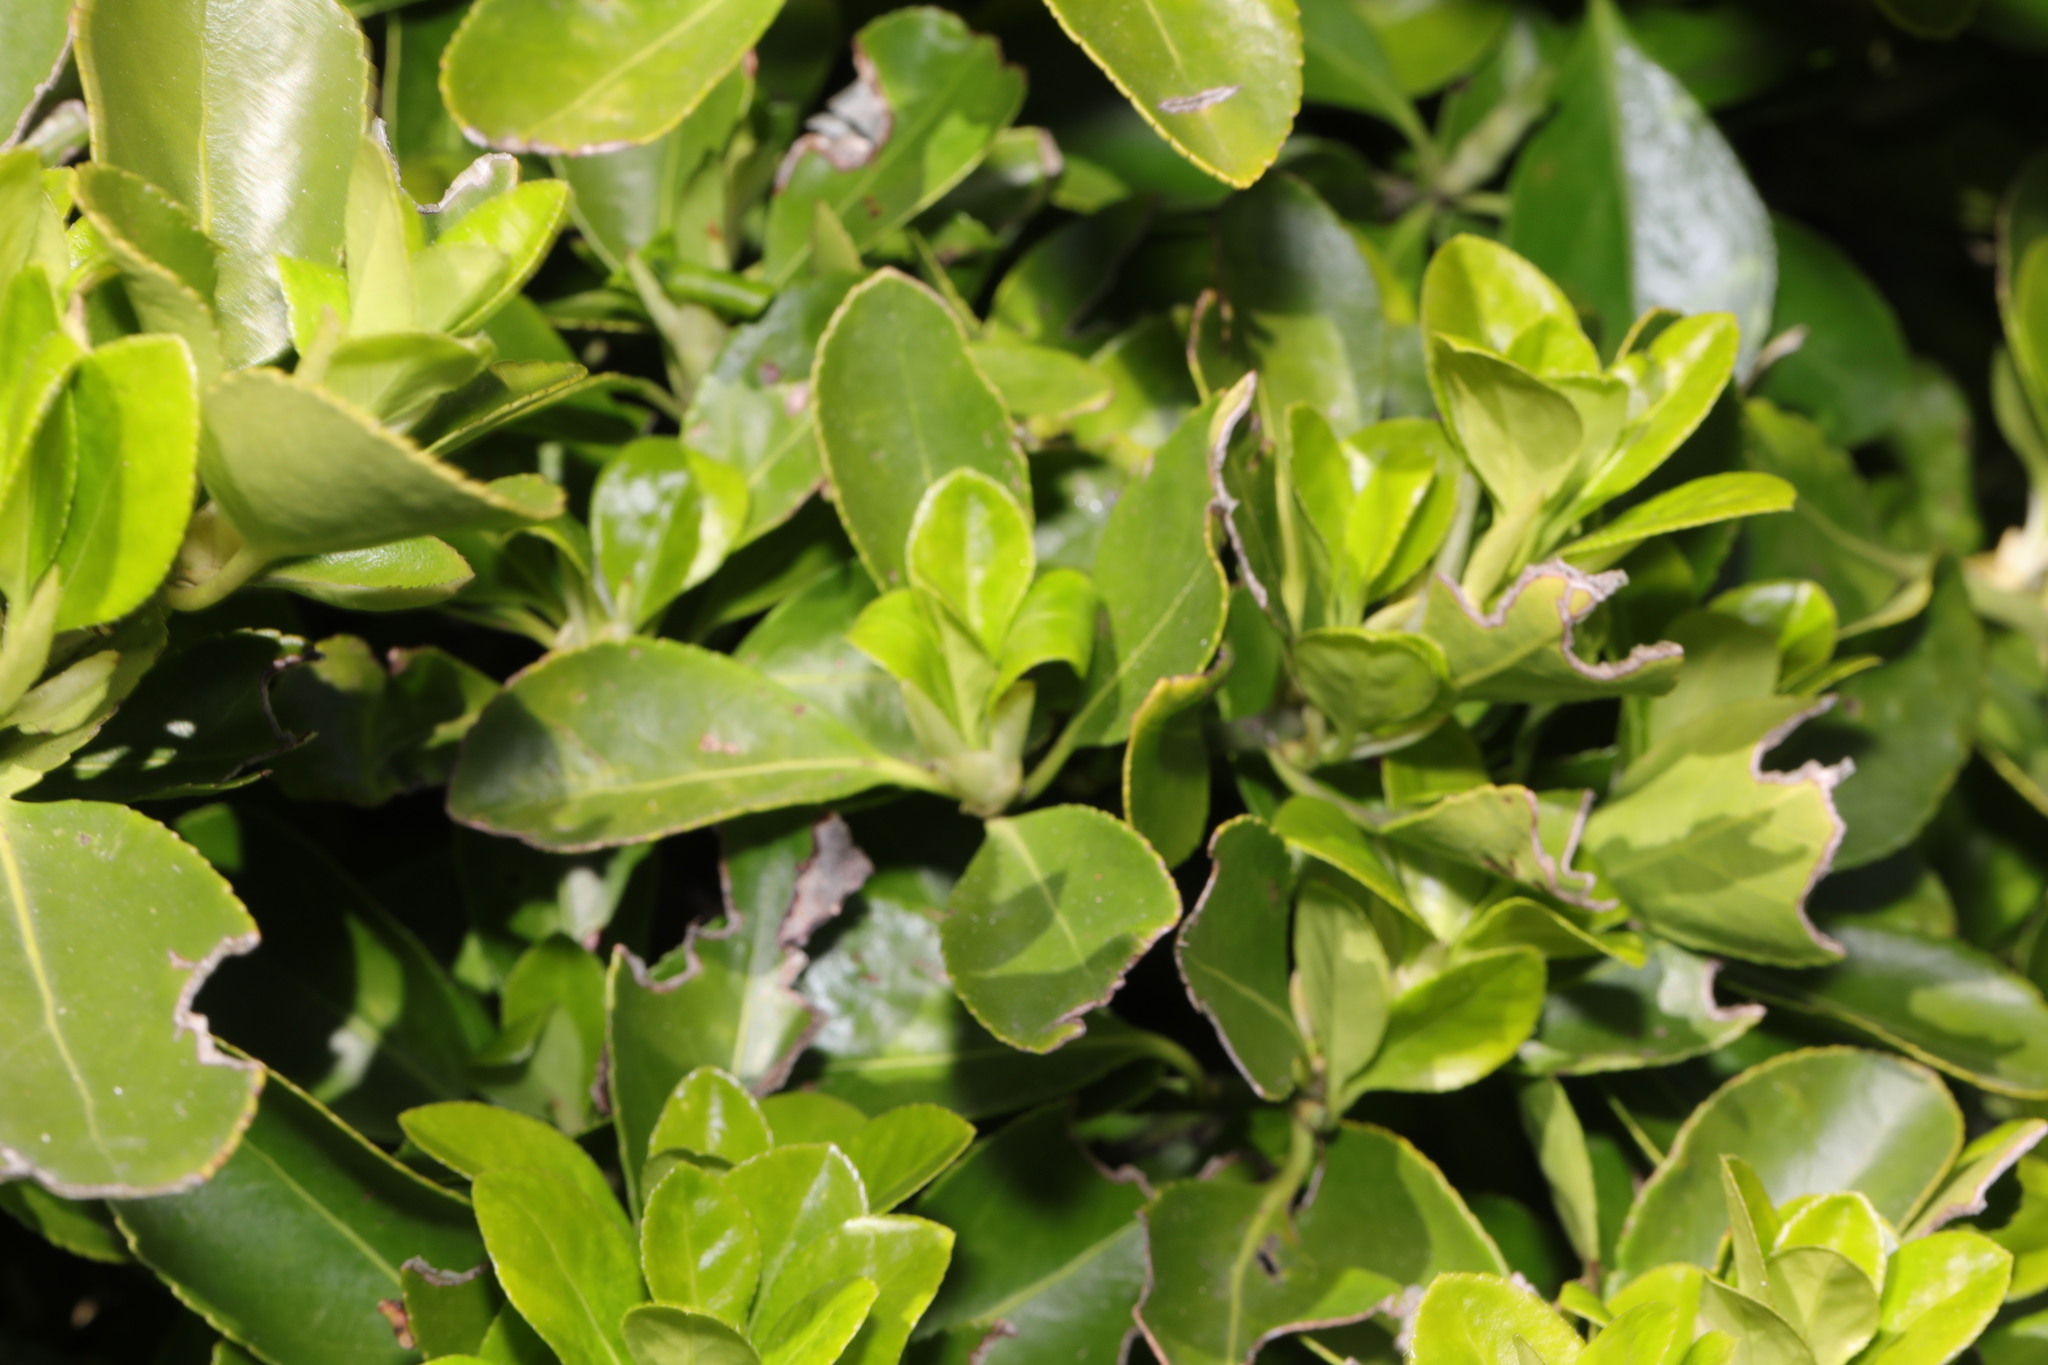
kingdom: Plantae
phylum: Tracheophyta
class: Magnoliopsida
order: Celastrales
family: Celastraceae
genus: Euonymus
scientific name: Euonymus japonicus
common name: Japanese spindletree
